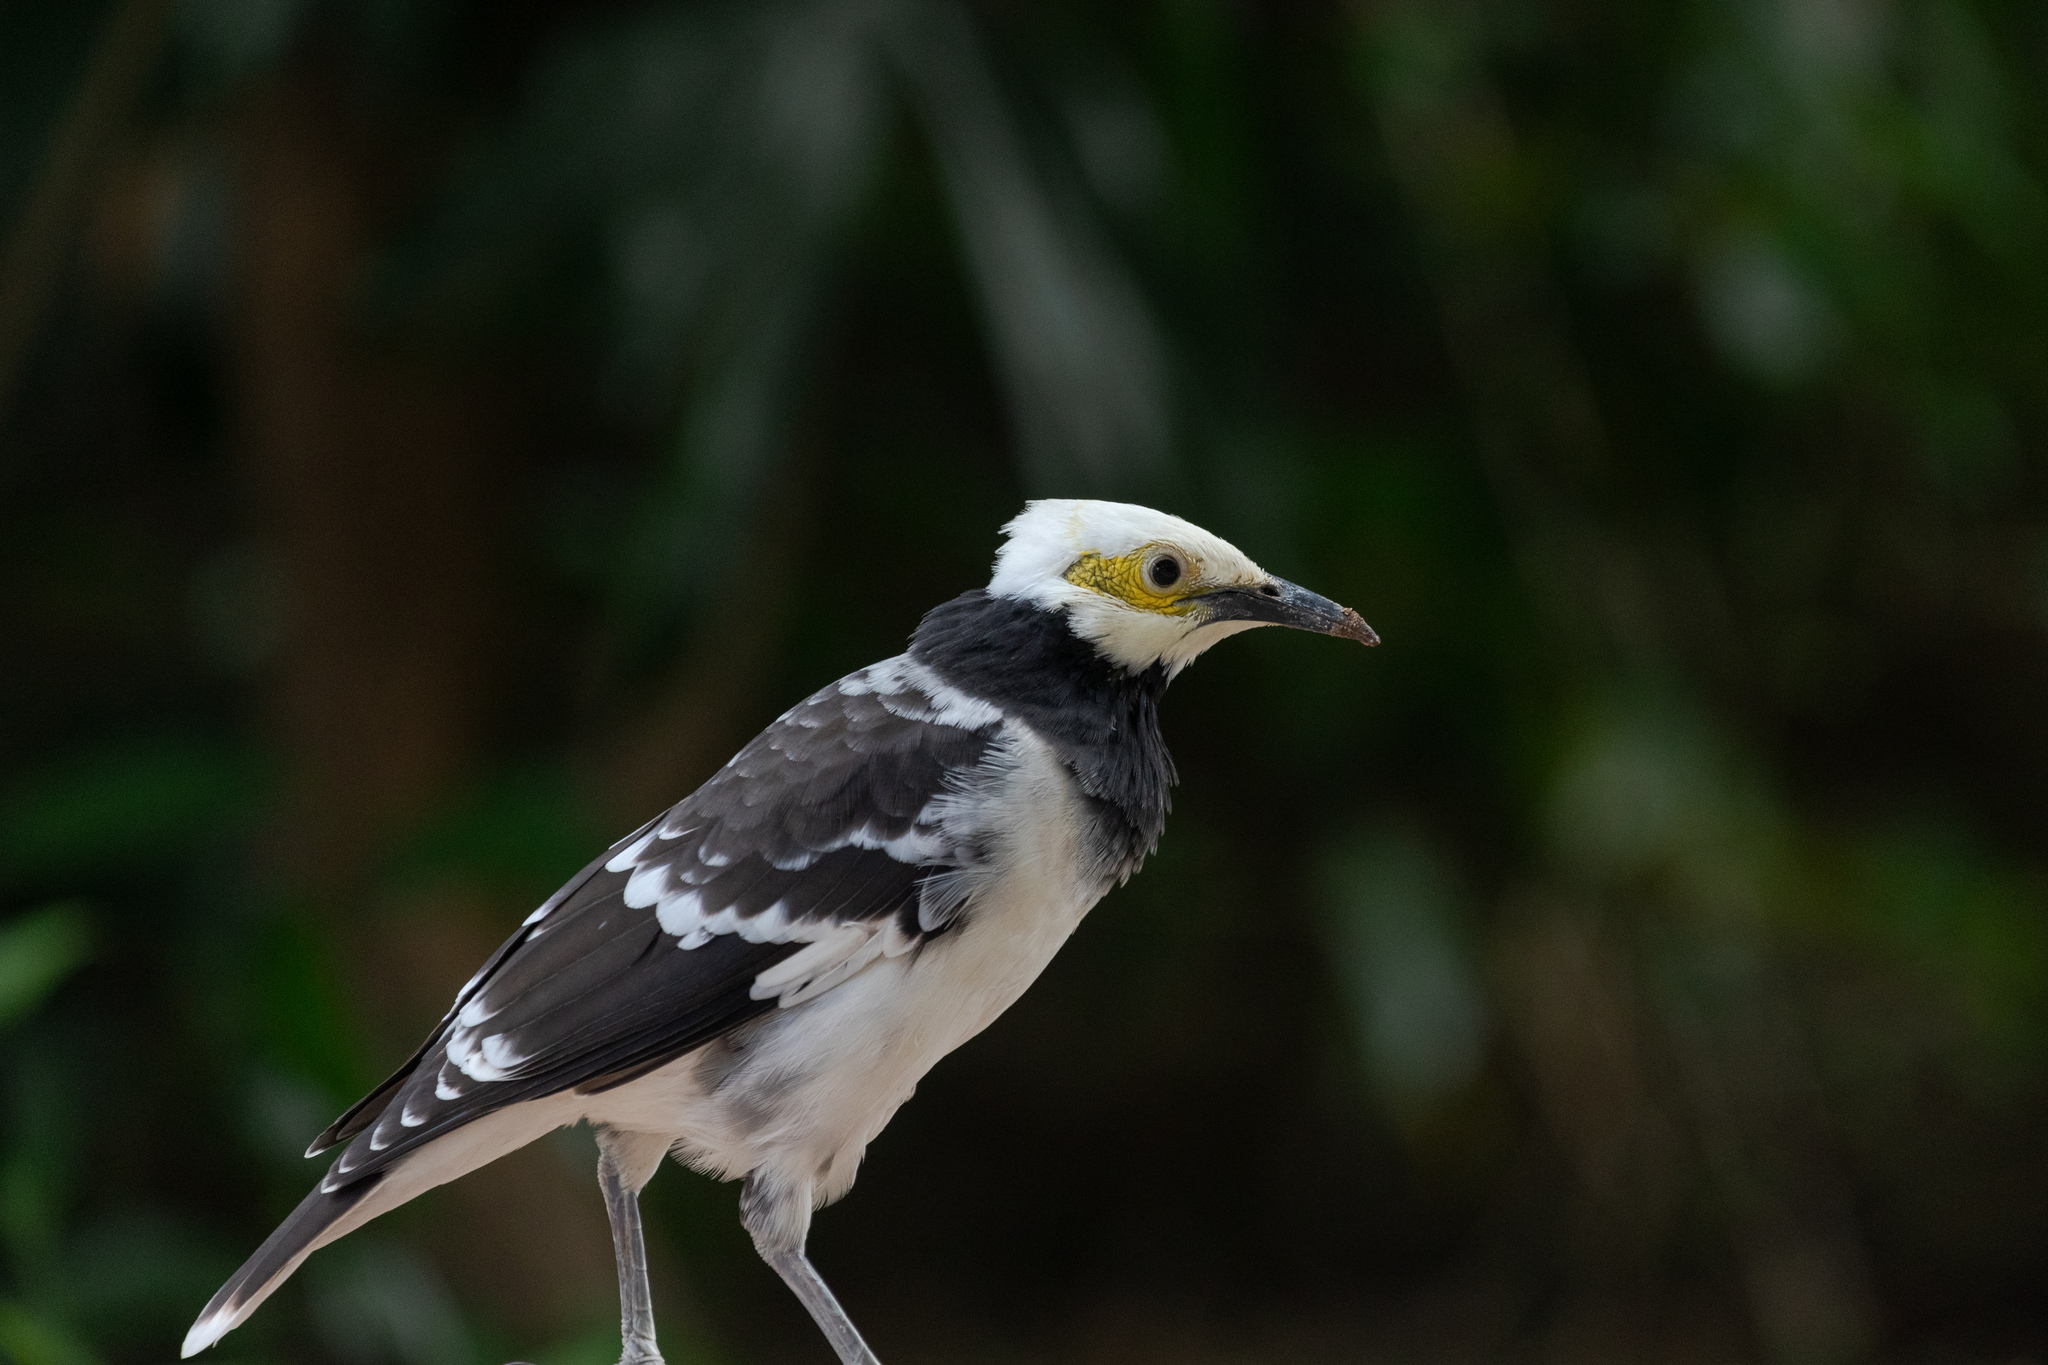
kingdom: Animalia
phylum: Chordata
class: Aves
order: Passeriformes
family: Sturnidae
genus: Gracupica
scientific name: Gracupica nigricollis
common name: Black-collared starling
